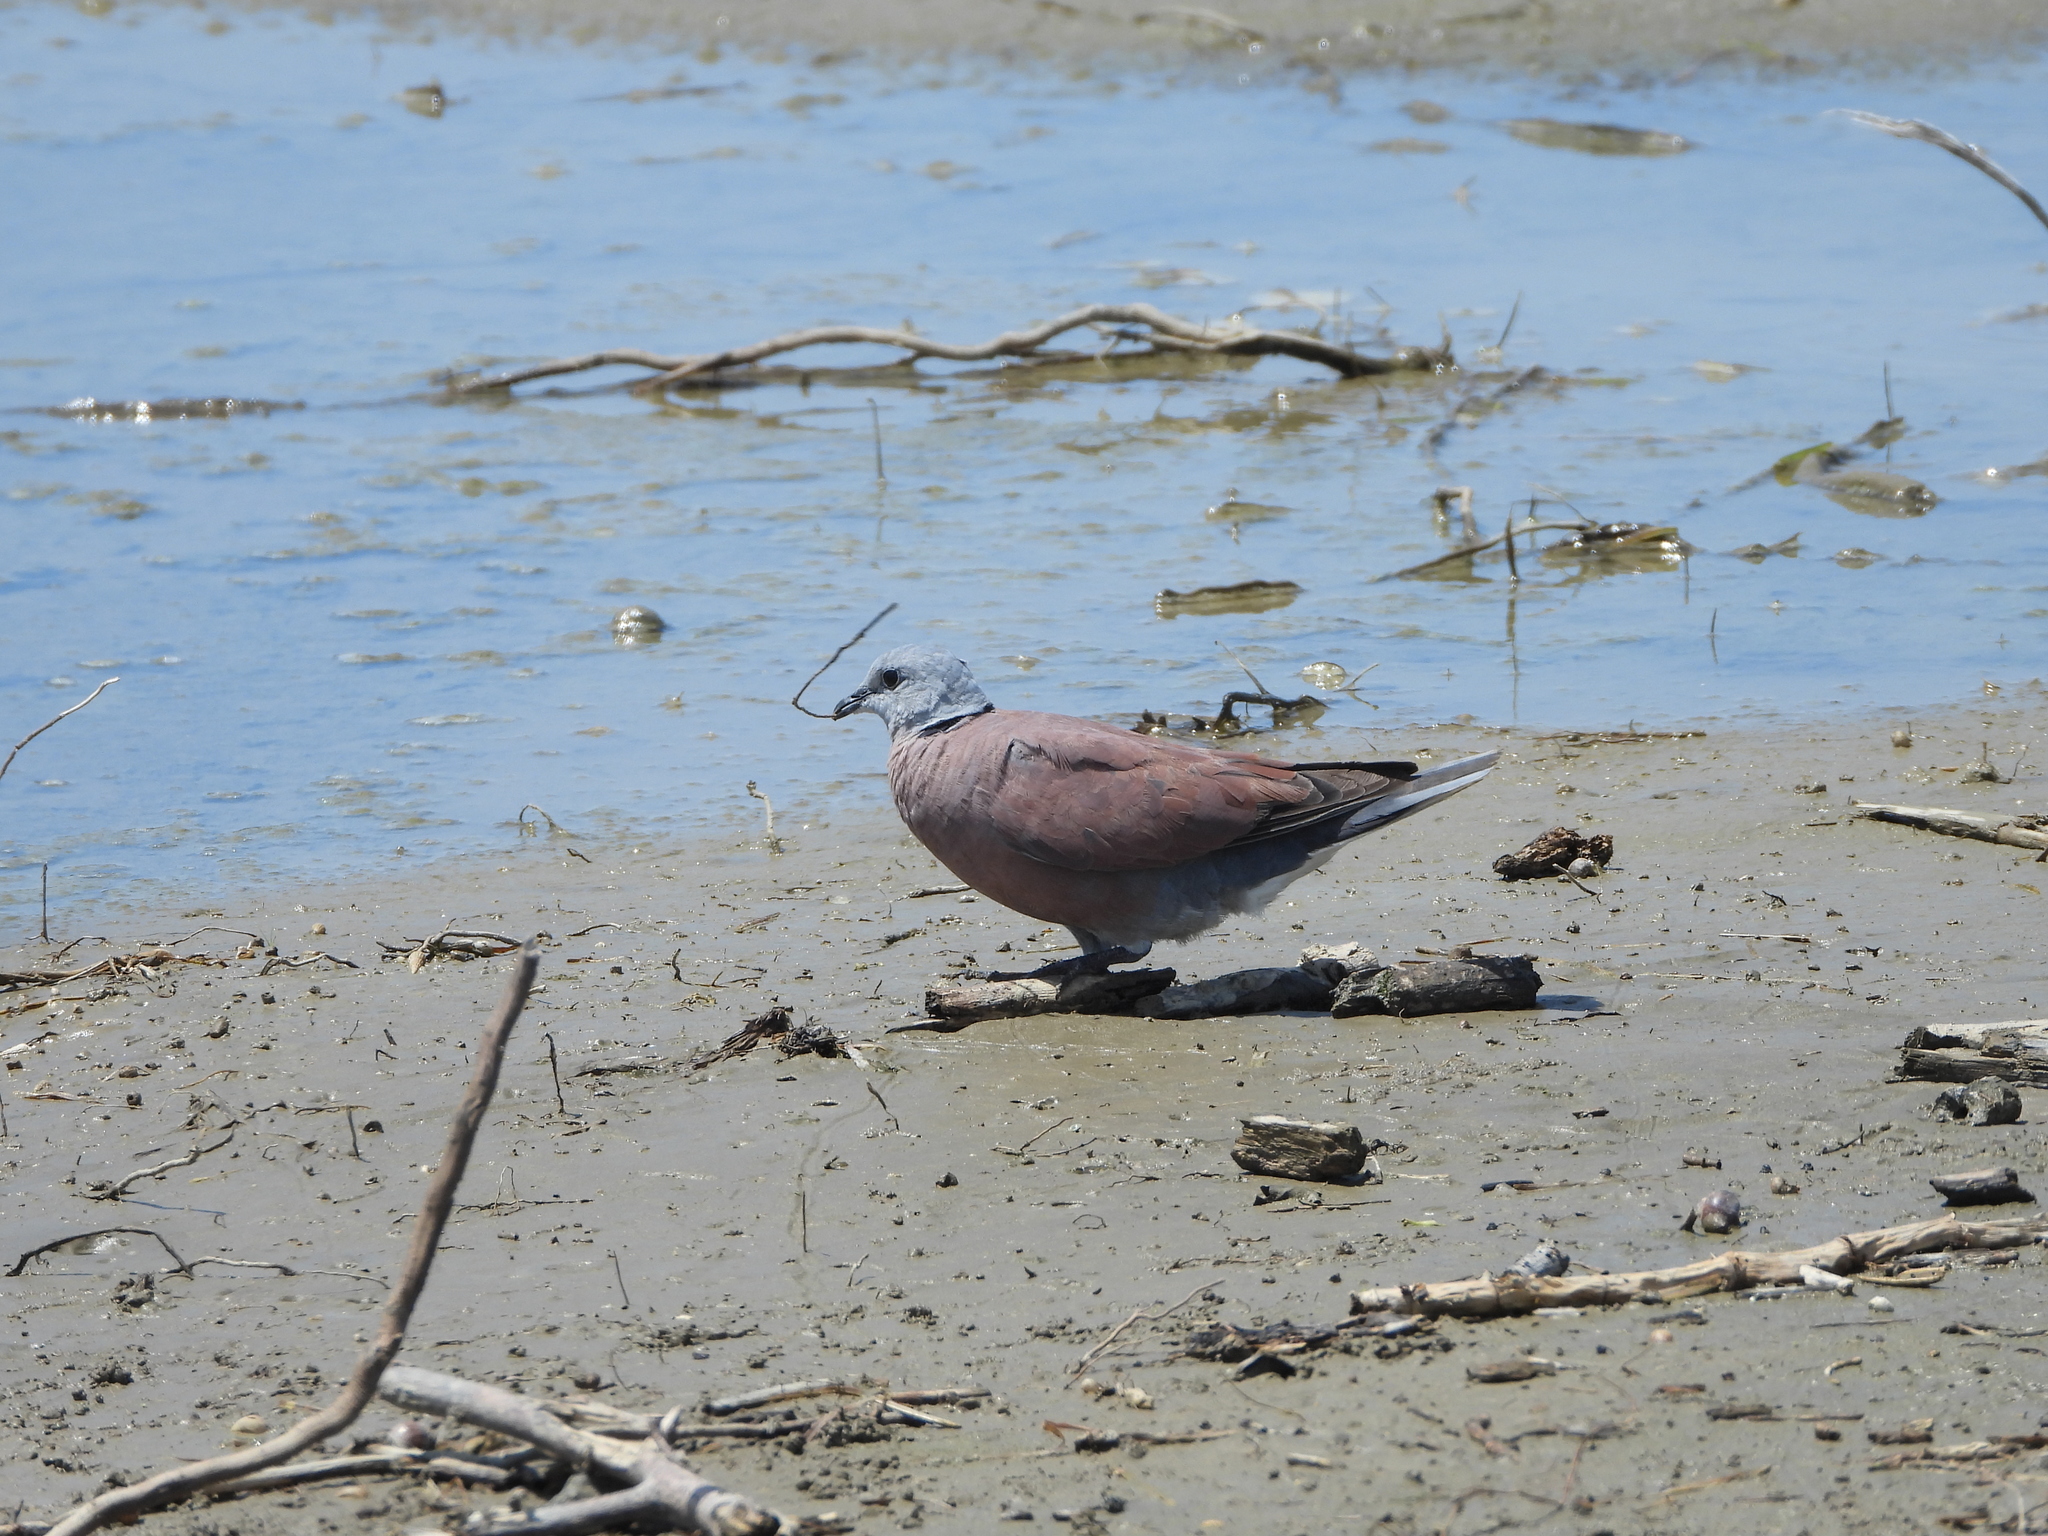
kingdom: Animalia
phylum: Chordata
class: Aves
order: Columbiformes
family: Columbidae
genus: Streptopelia
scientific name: Streptopelia tranquebarica
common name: Red turtle dove
